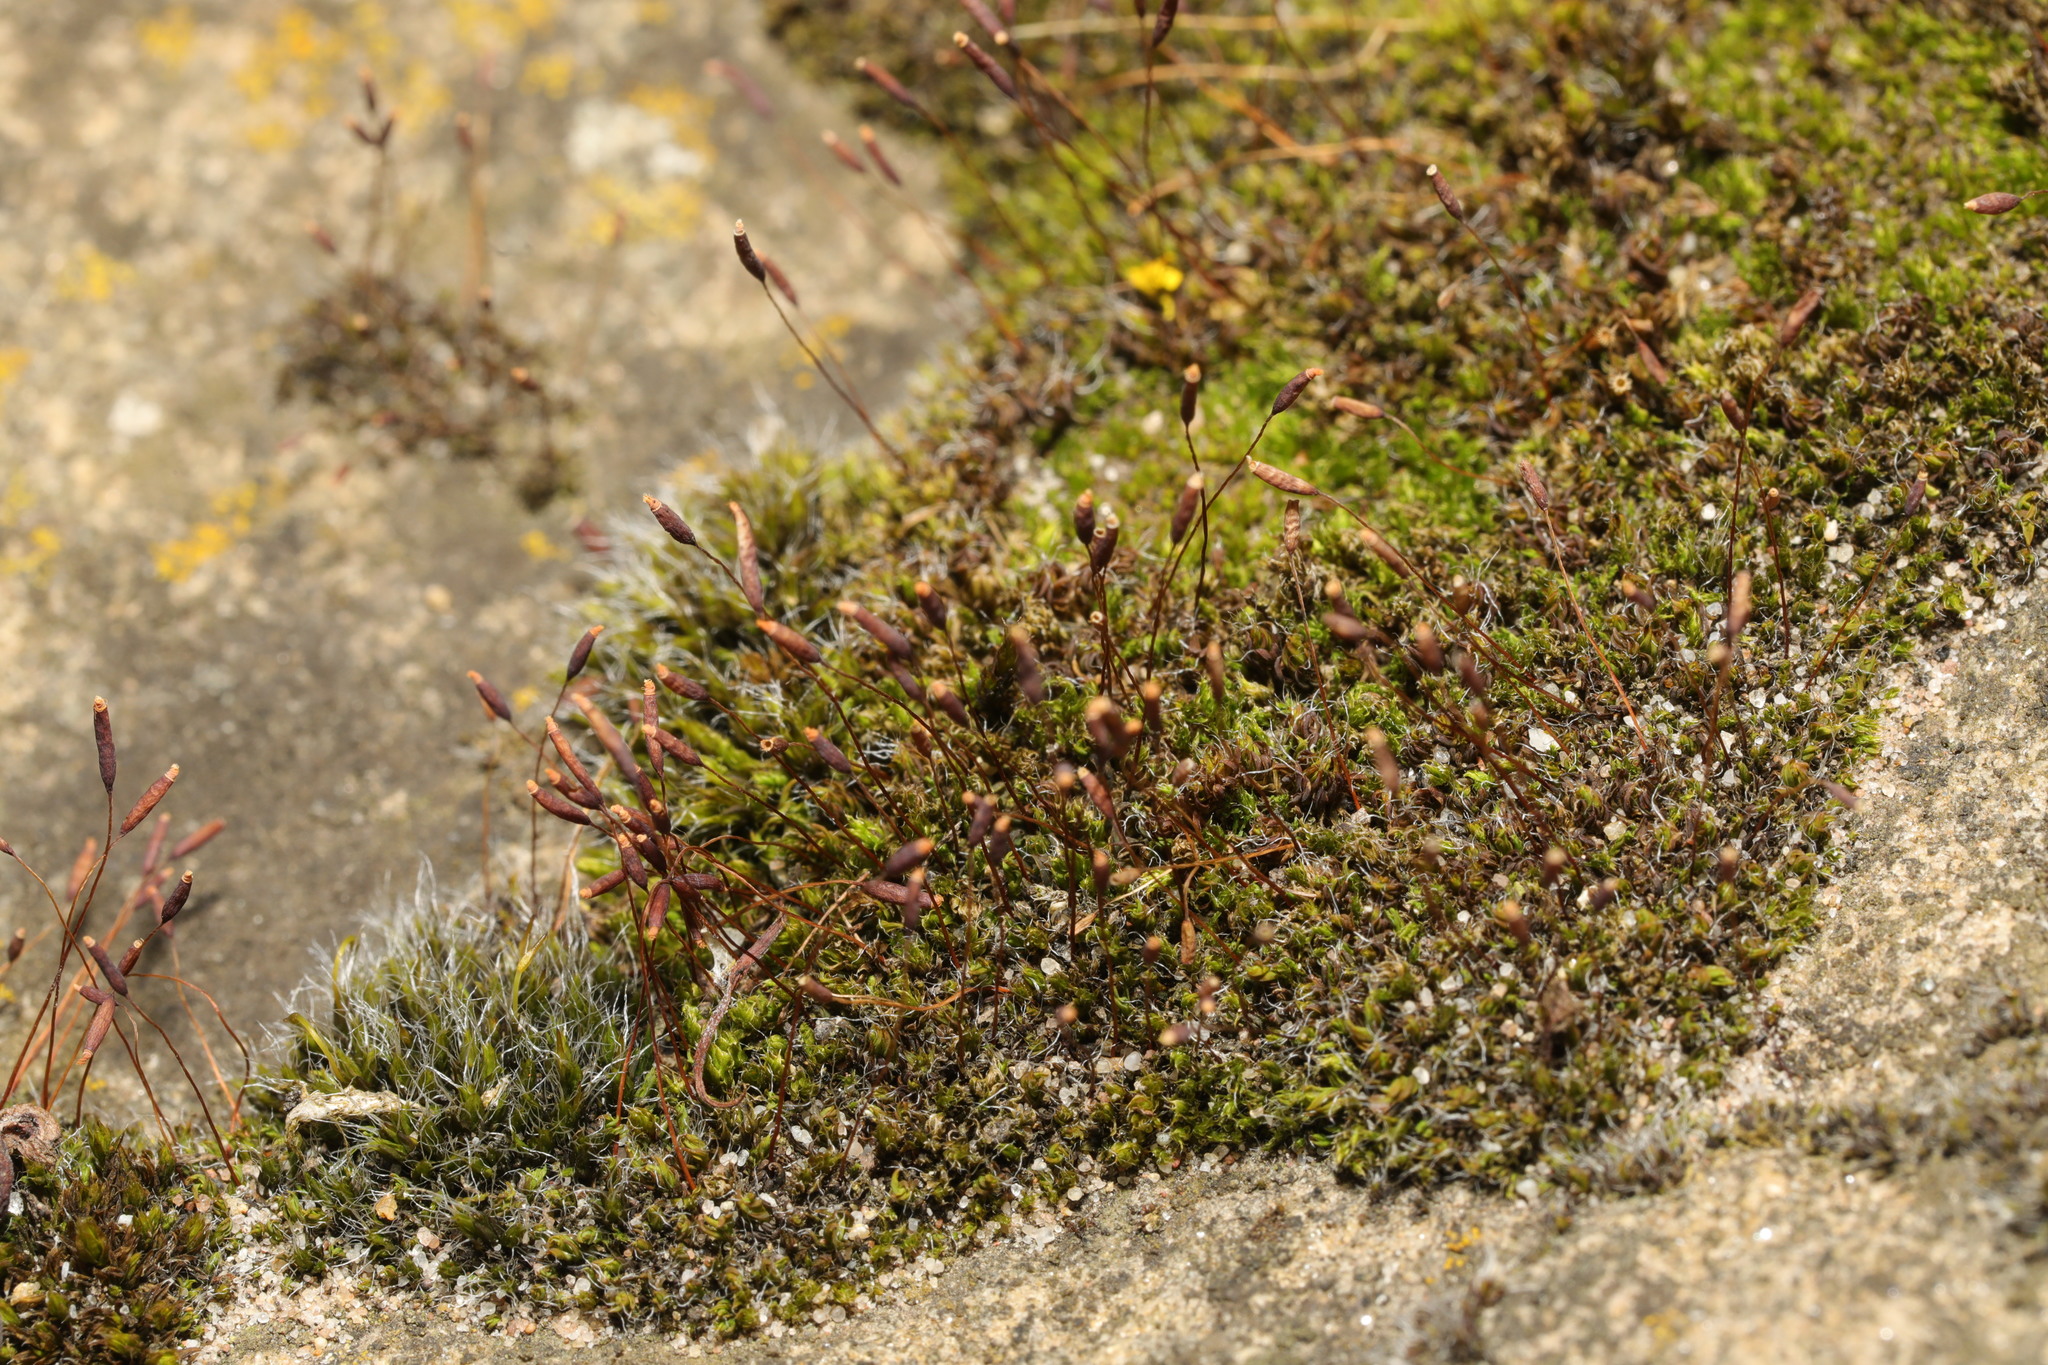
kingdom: Plantae
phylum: Bryophyta
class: Bryopsida
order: Pottiales
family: Pottiaceae
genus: Tortula
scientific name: Tortula muralis
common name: Wall screw-moss
